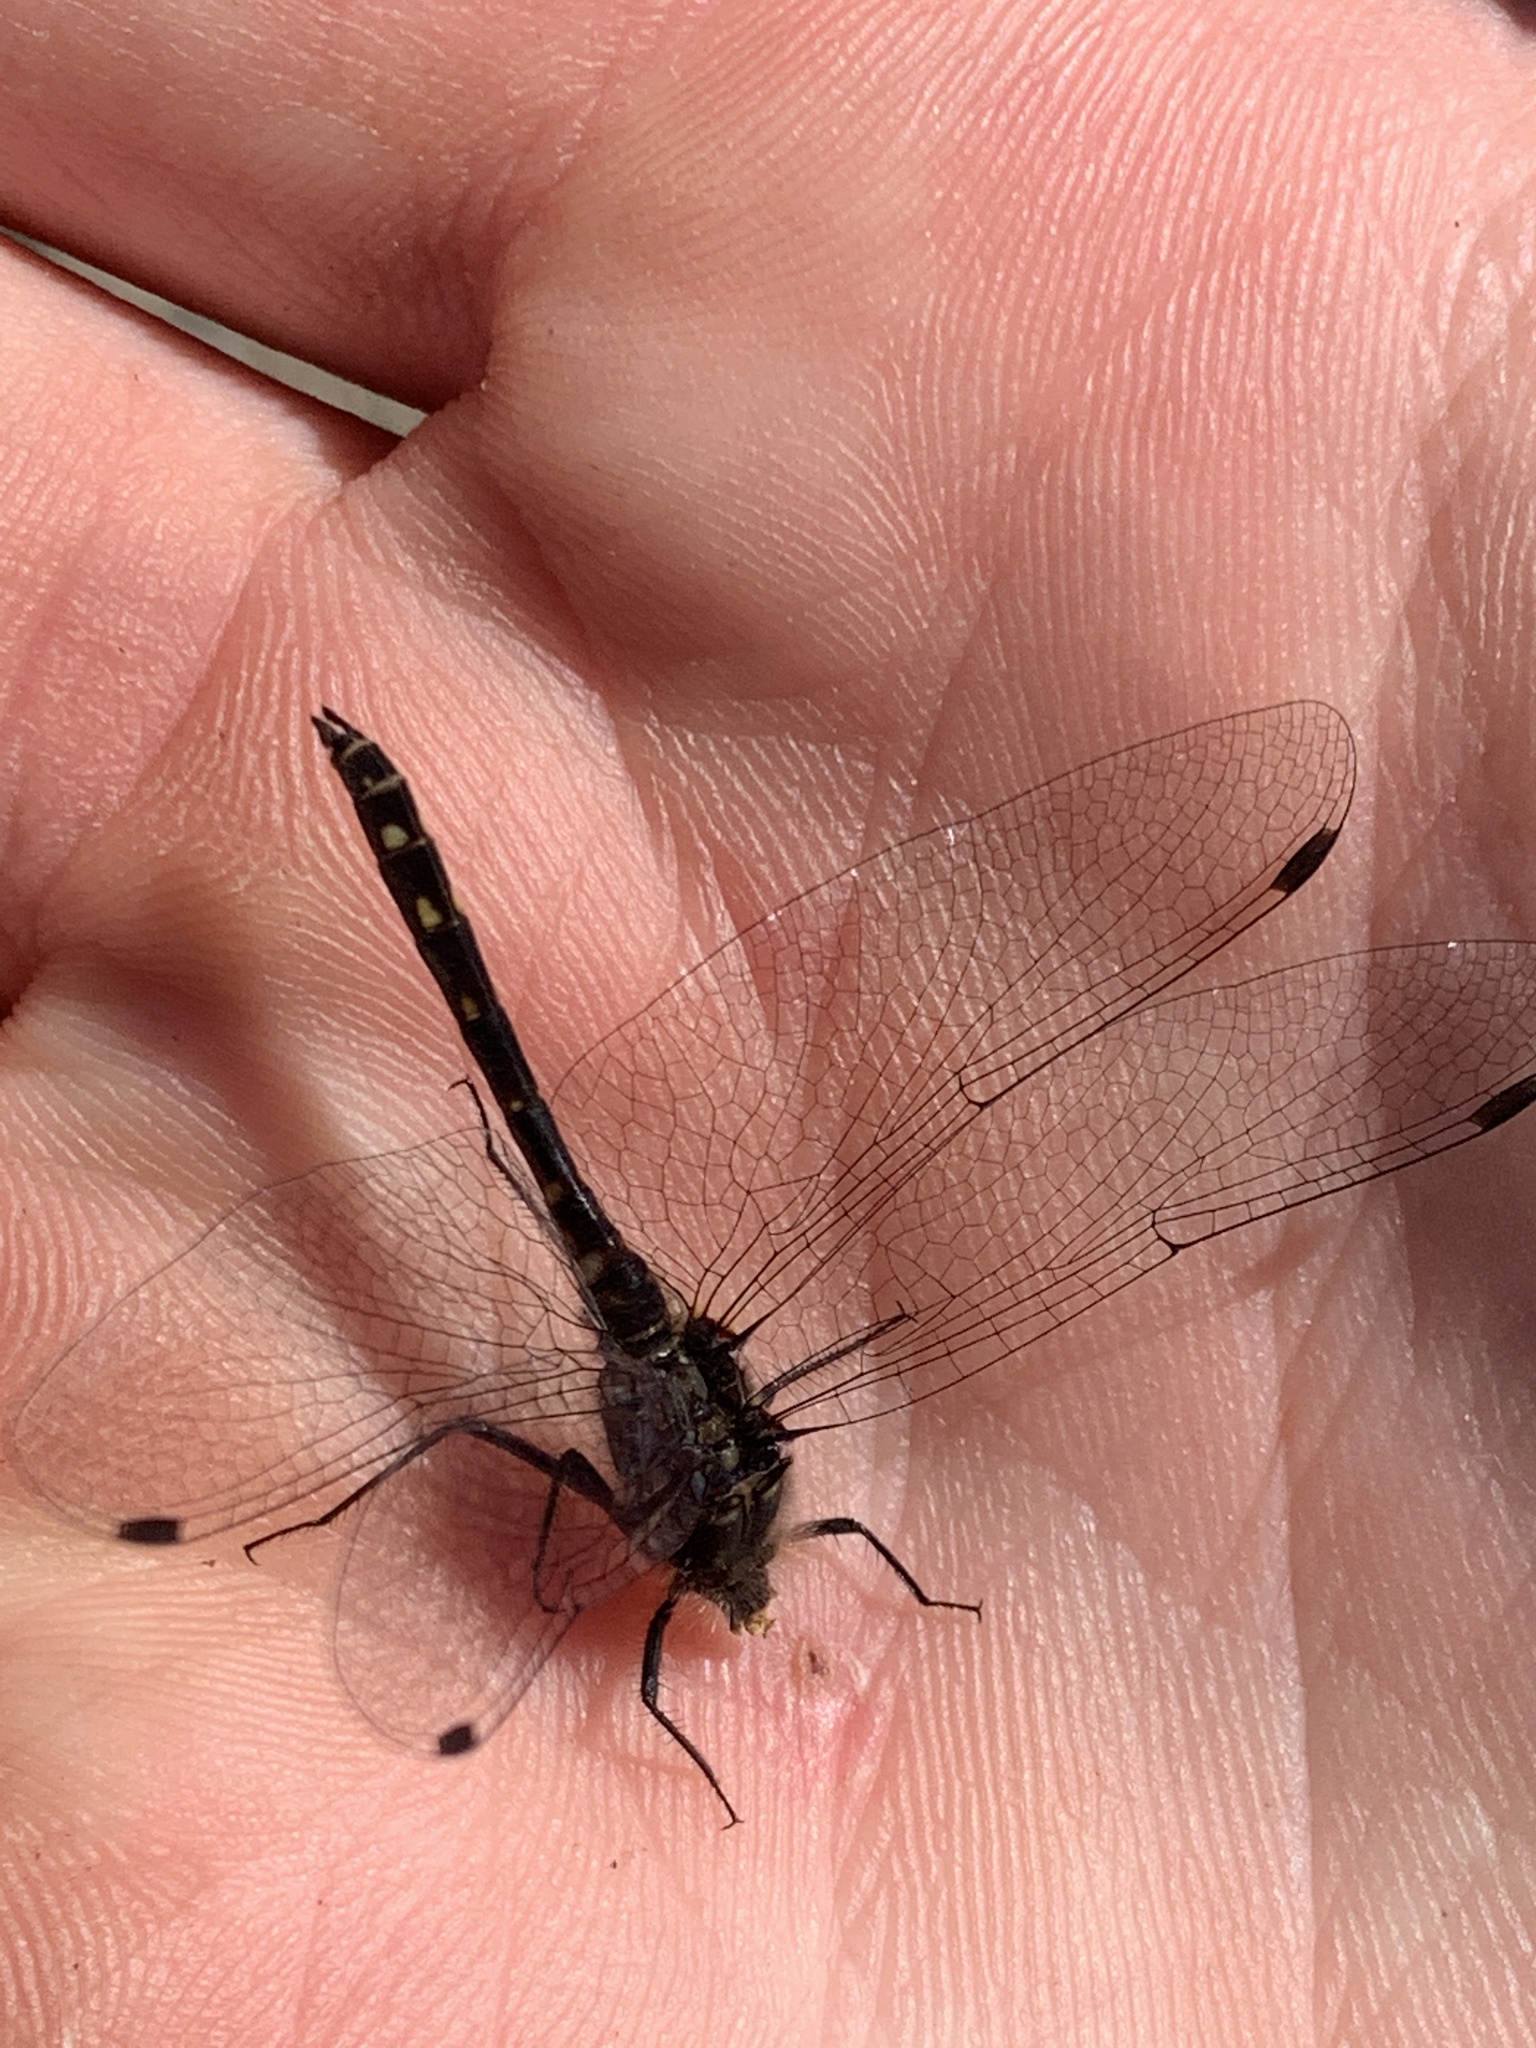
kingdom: Animalia
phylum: Arthropoda
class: Insecta
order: Odonata
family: Libellulidae
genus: Sympetrum
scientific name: Sympetrum danae
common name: Black darter
